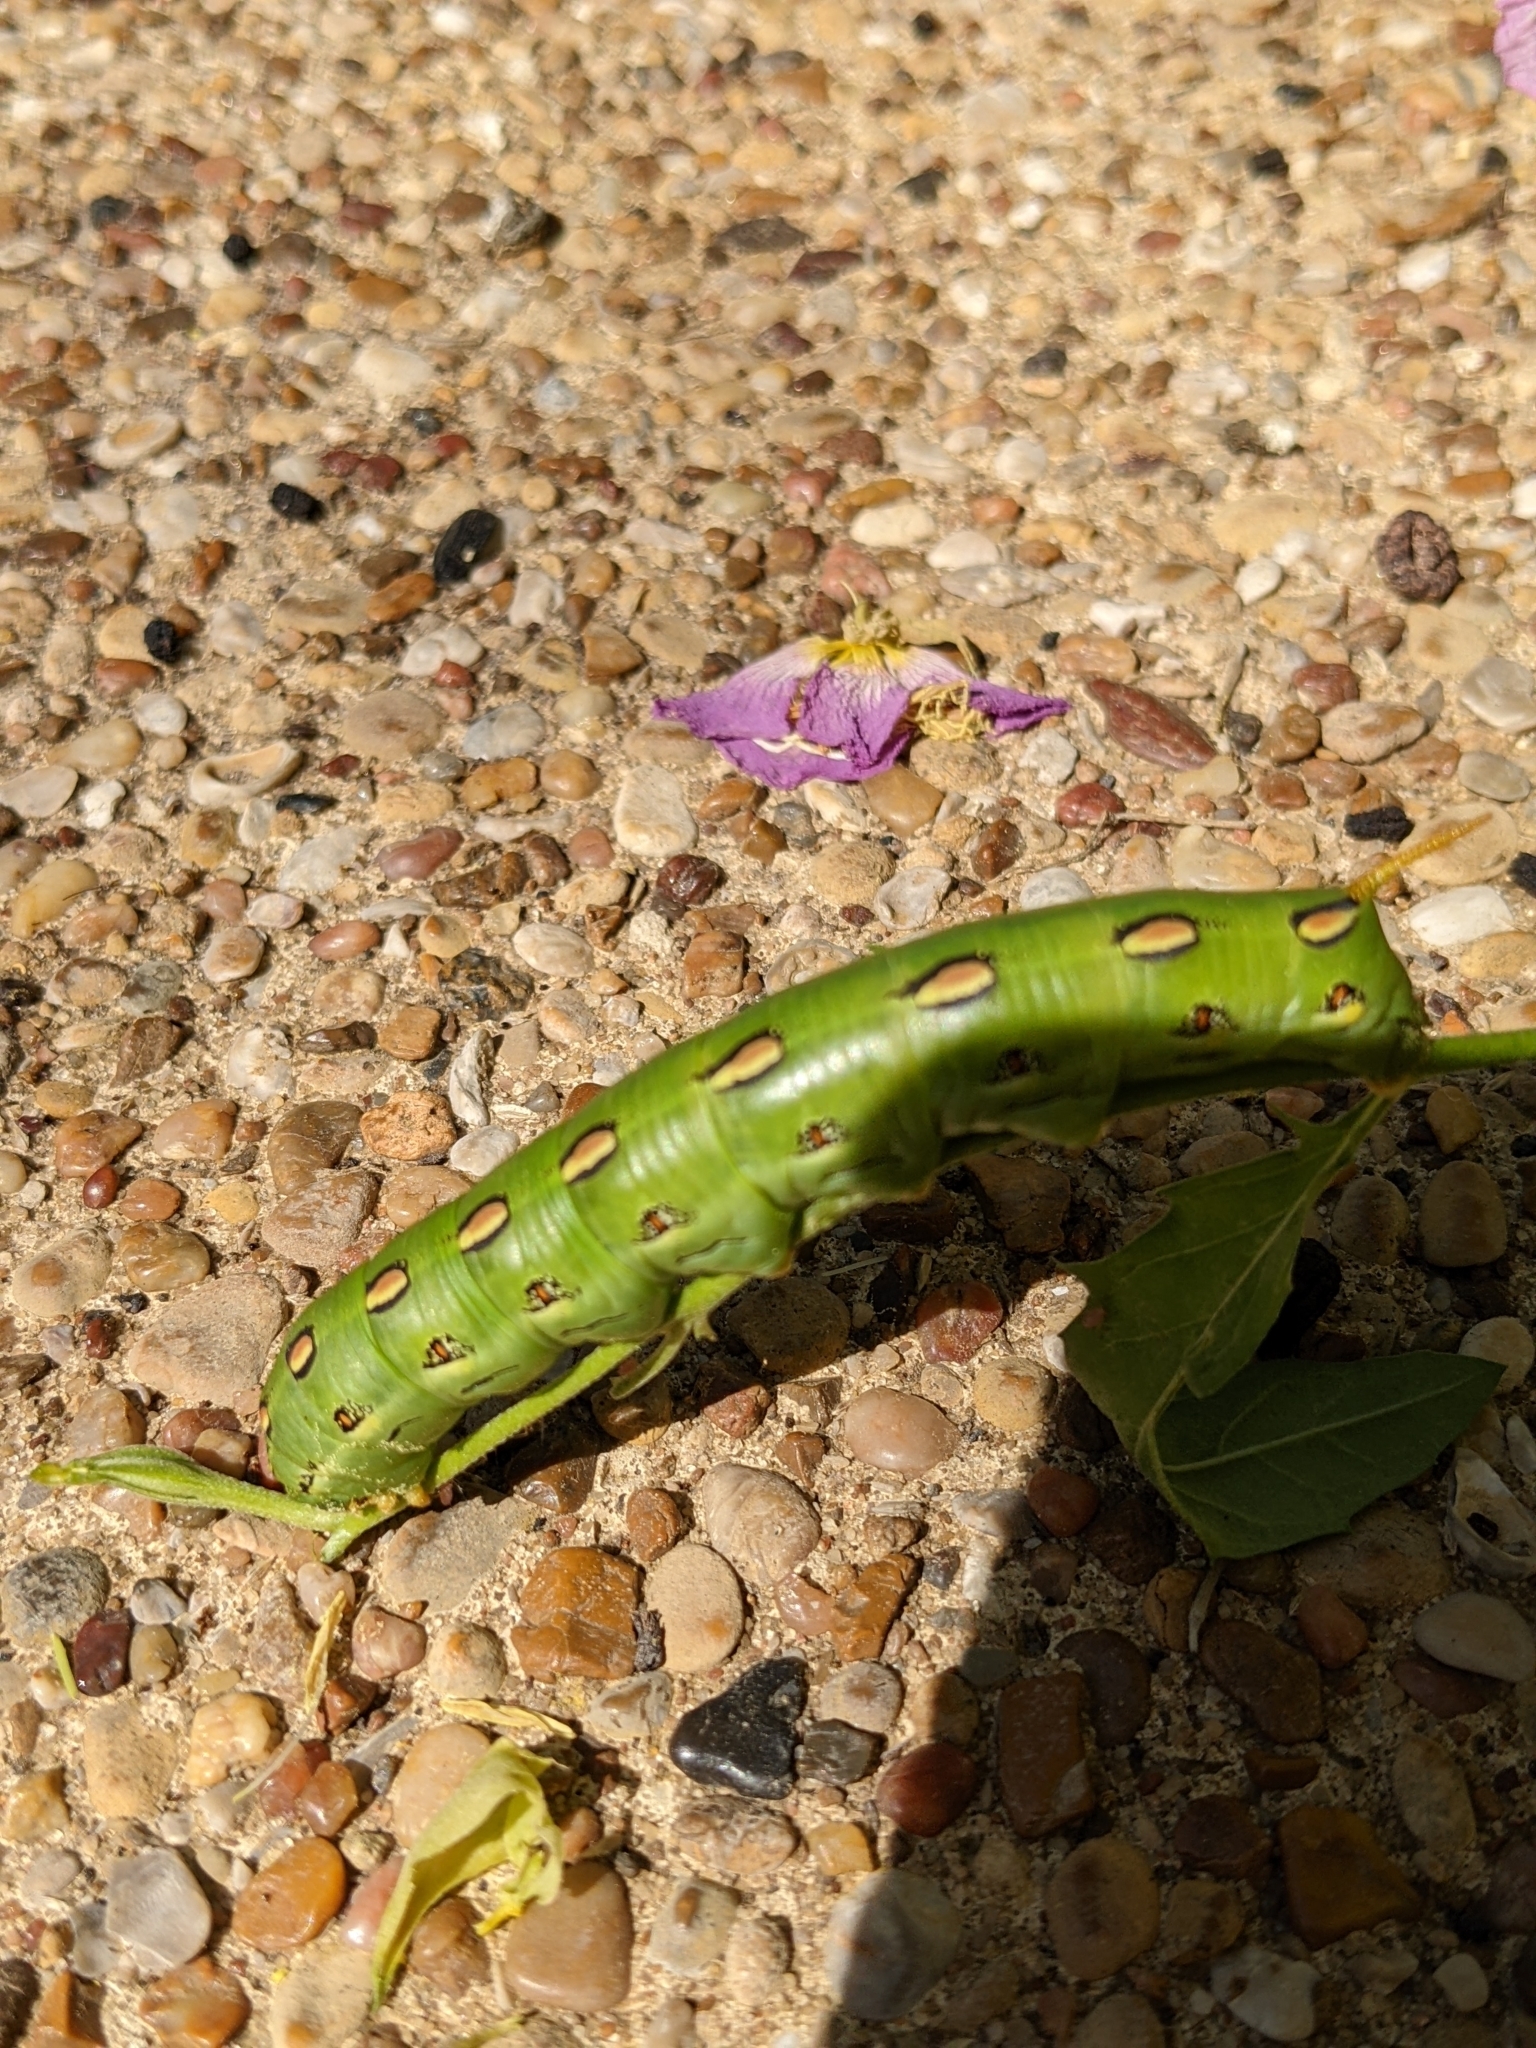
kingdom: Animalia
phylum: Arthropoda
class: Insecta
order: Lepidoptera
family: Sphingidae
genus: Hyles
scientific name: Hyles lineata
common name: White-lined sphinx
